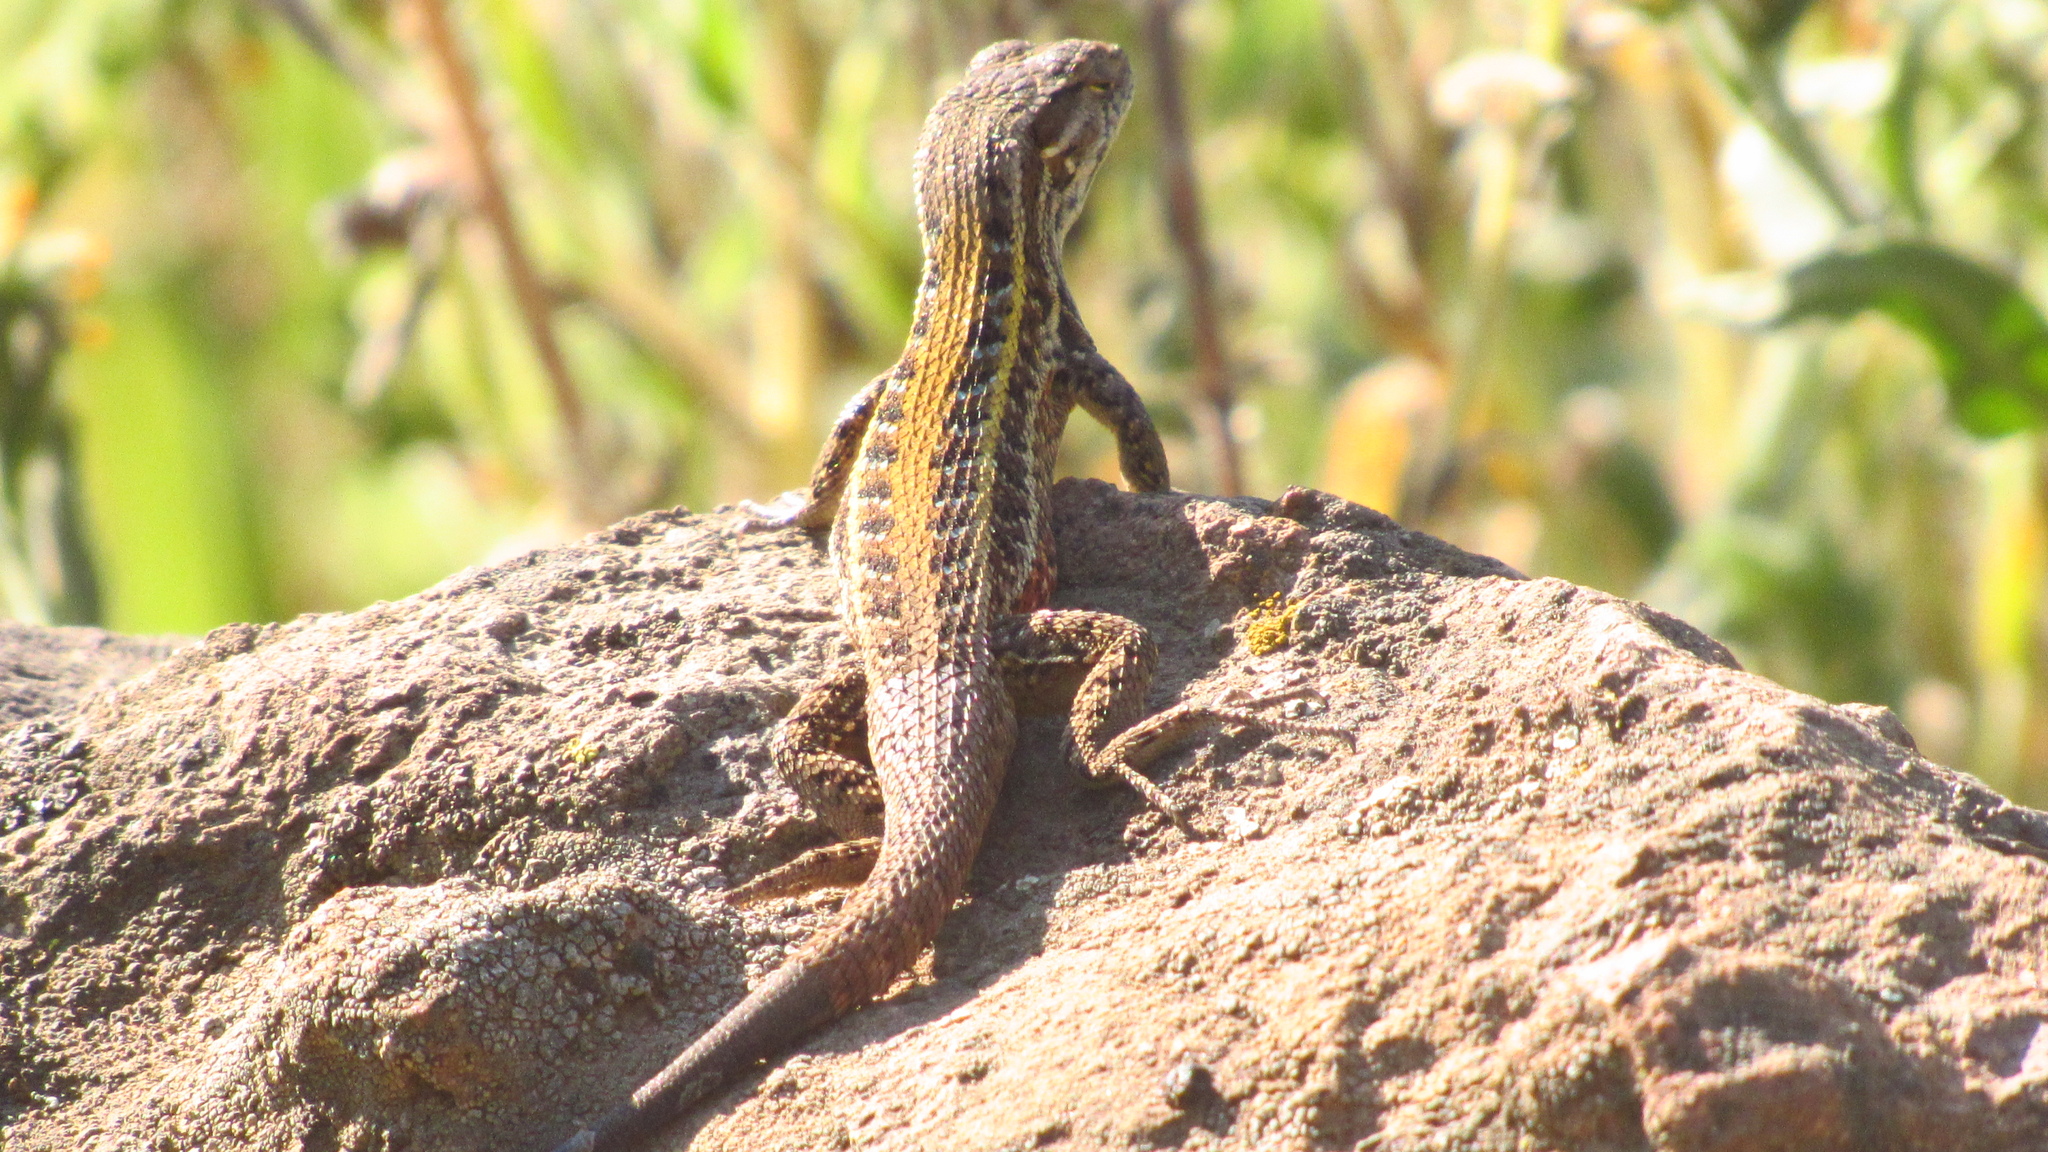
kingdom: Animalia
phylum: Chordata
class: Squamata
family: Liolaemidae
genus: Liolaemus
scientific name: Liolaemus lemniscatus
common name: Wreath tree iguana
